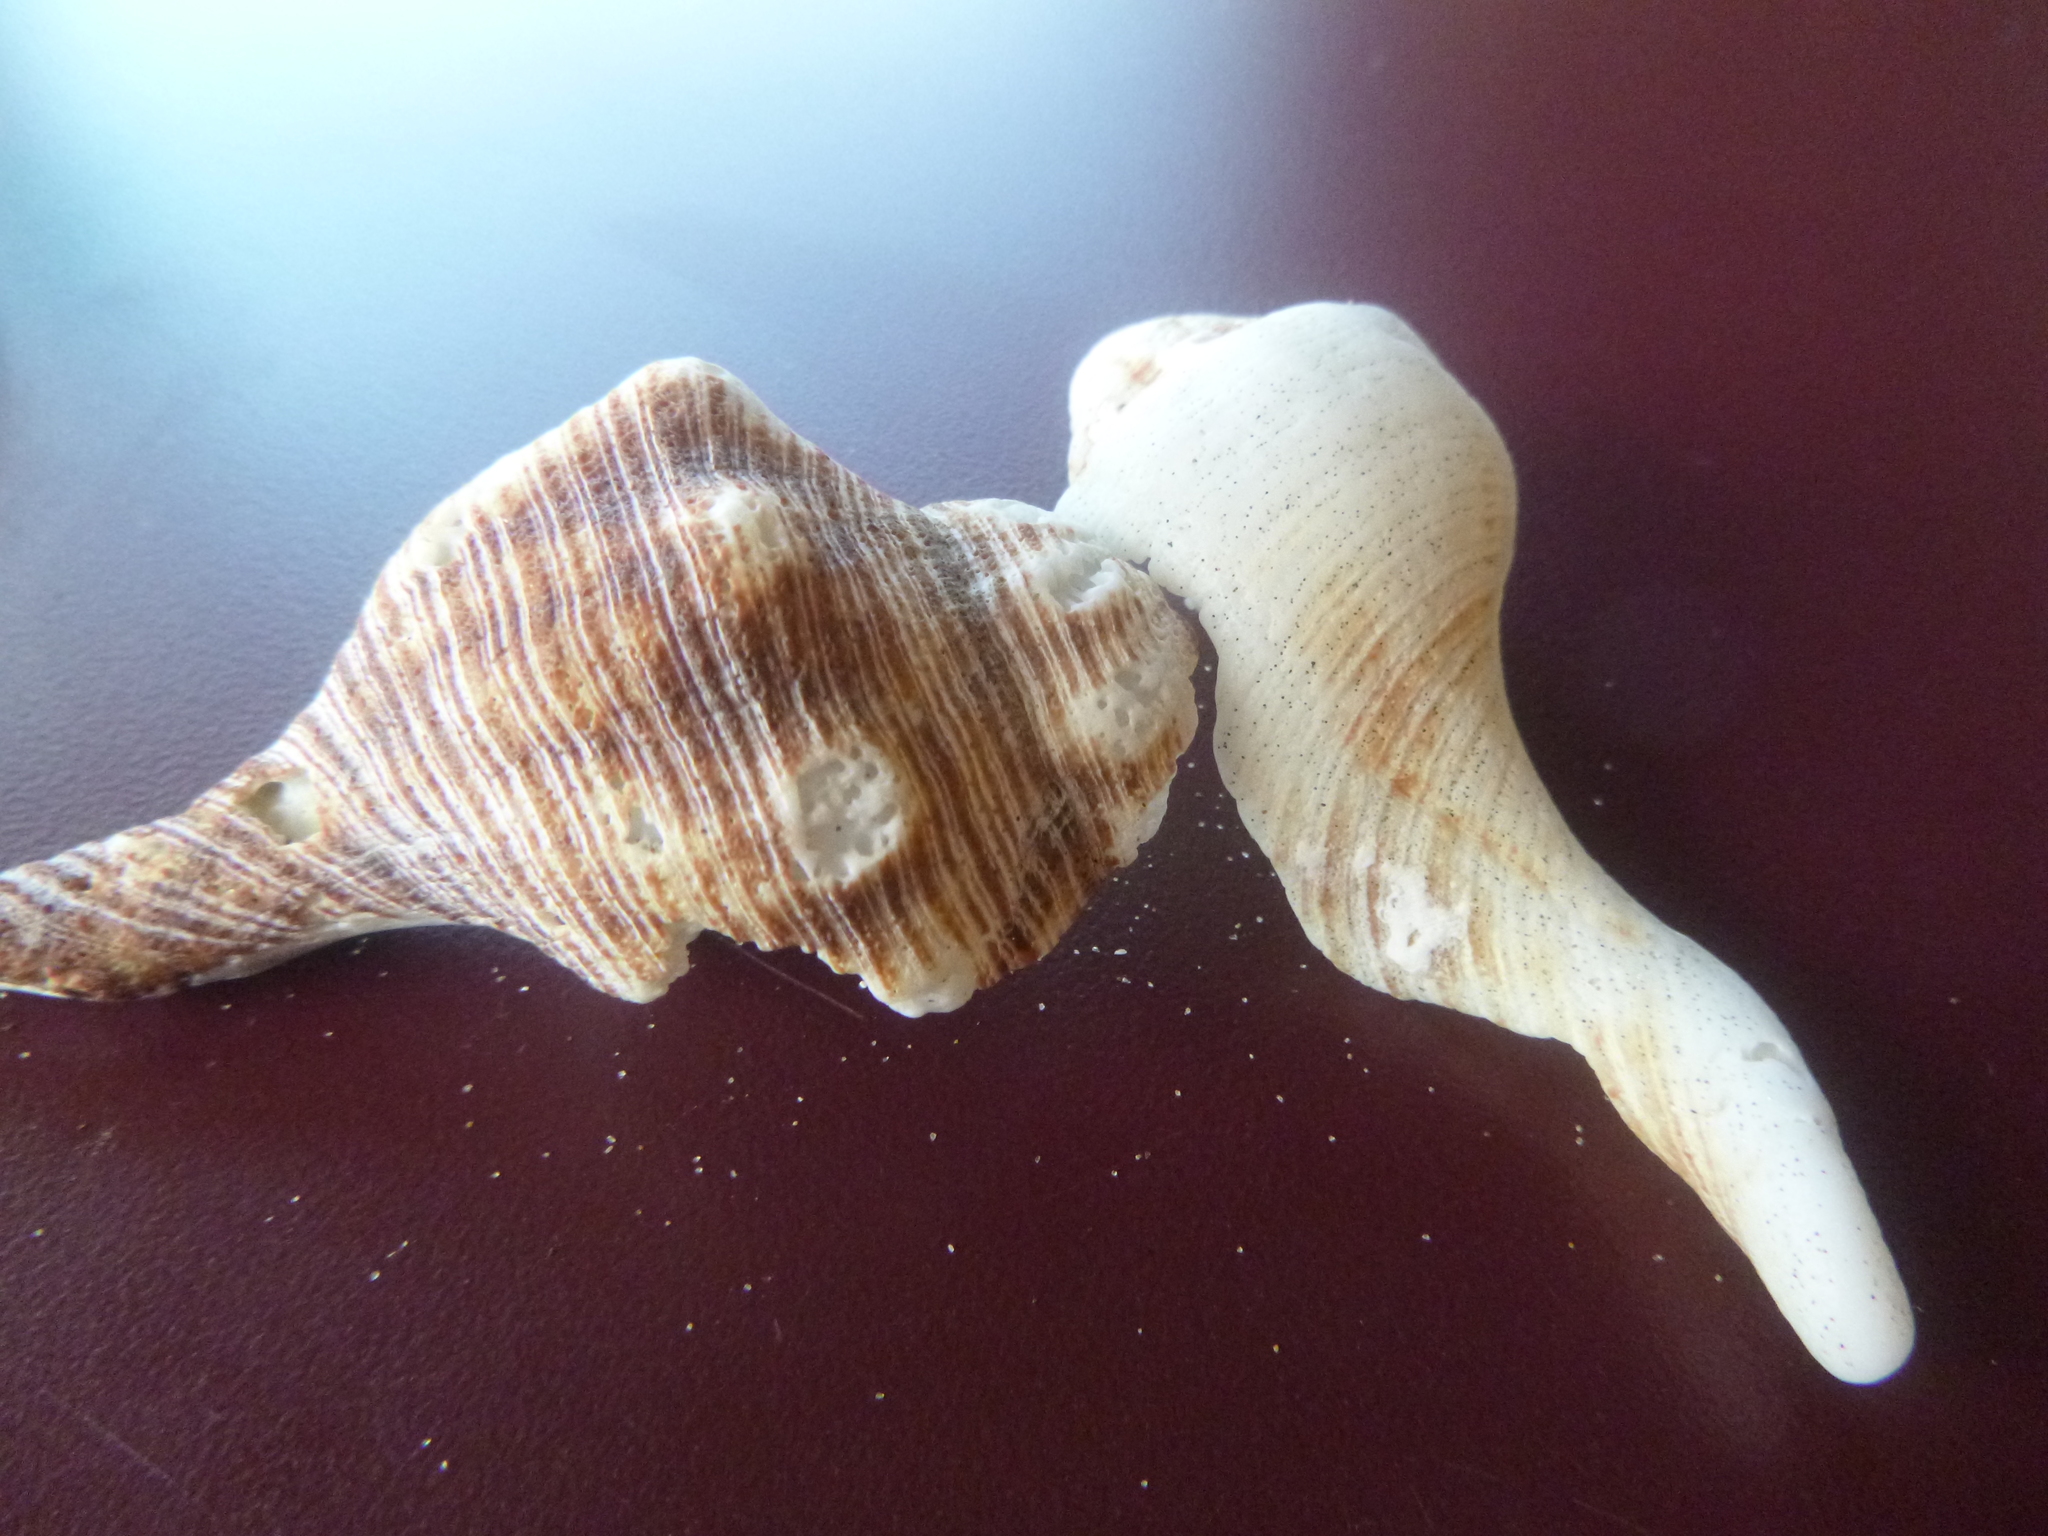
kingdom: Animalia
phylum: Mollusca
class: Gastropoda
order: Neogastropoda
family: Austrosiphonidae
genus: Penion
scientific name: Penion sulcatus
